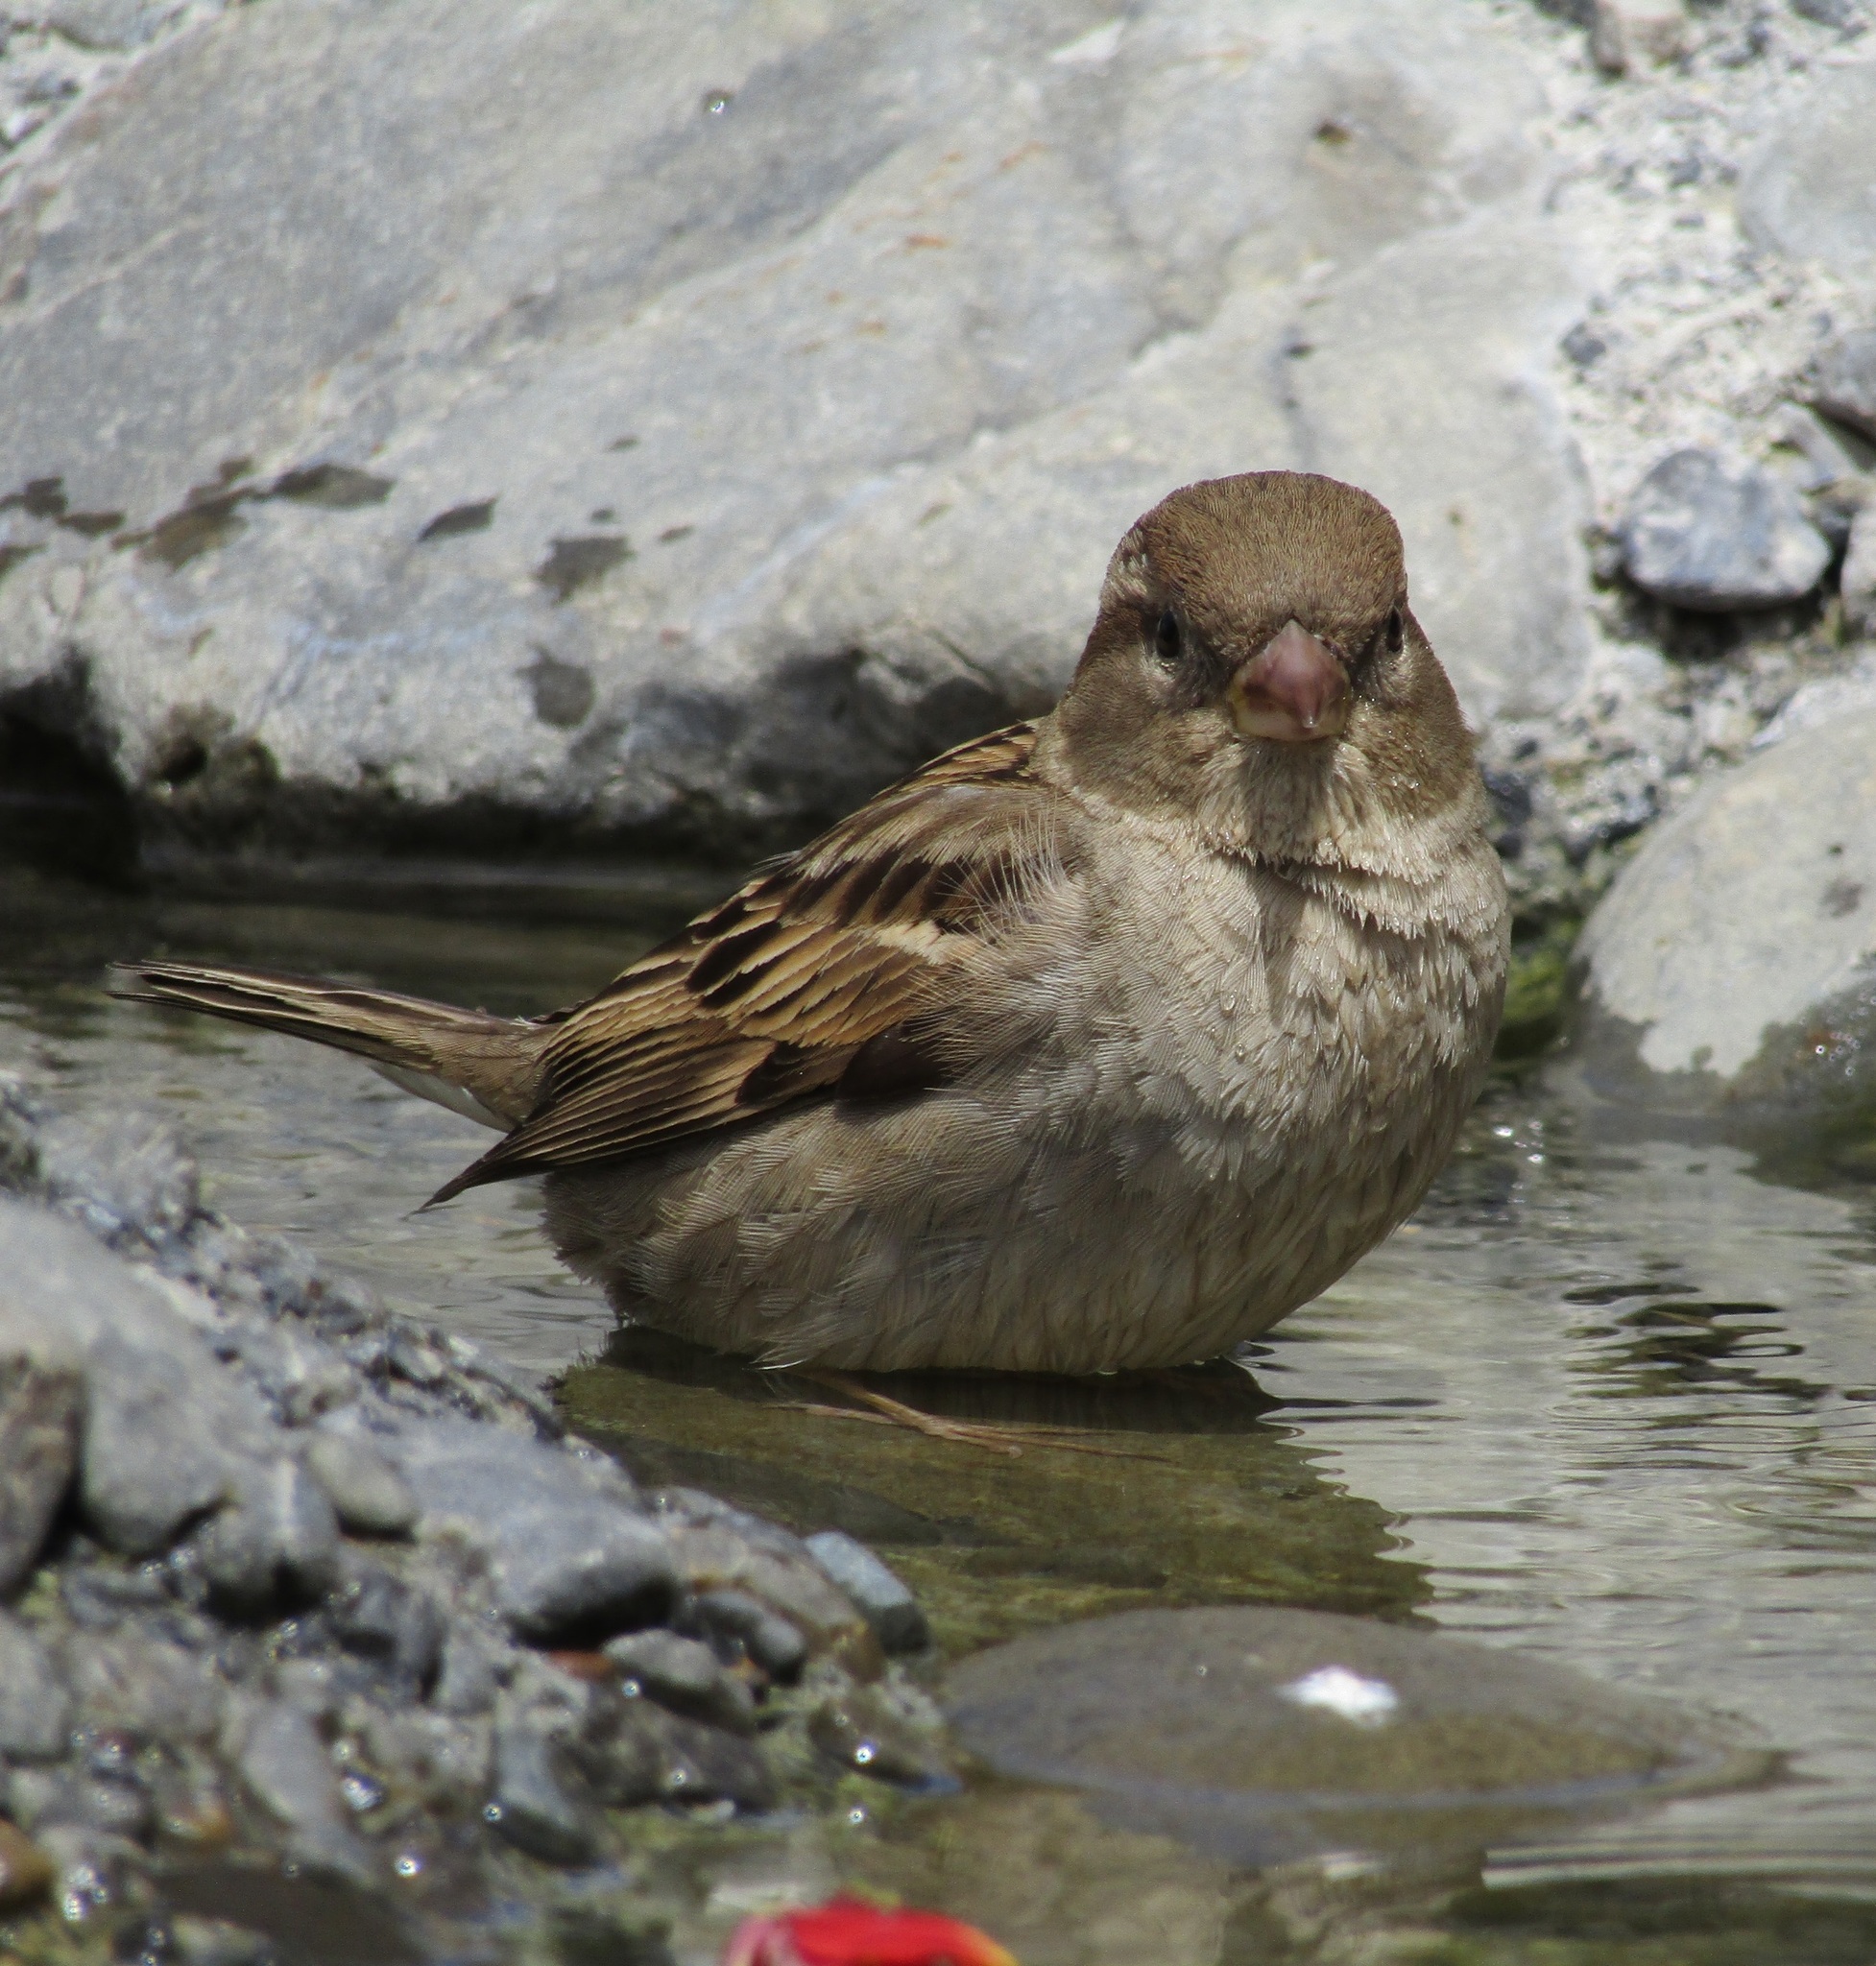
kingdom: Animalia
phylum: Chordata
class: Aves
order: Passeriformes
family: Passeridae
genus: Passer
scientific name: Passer domesticus
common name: House sparrow
